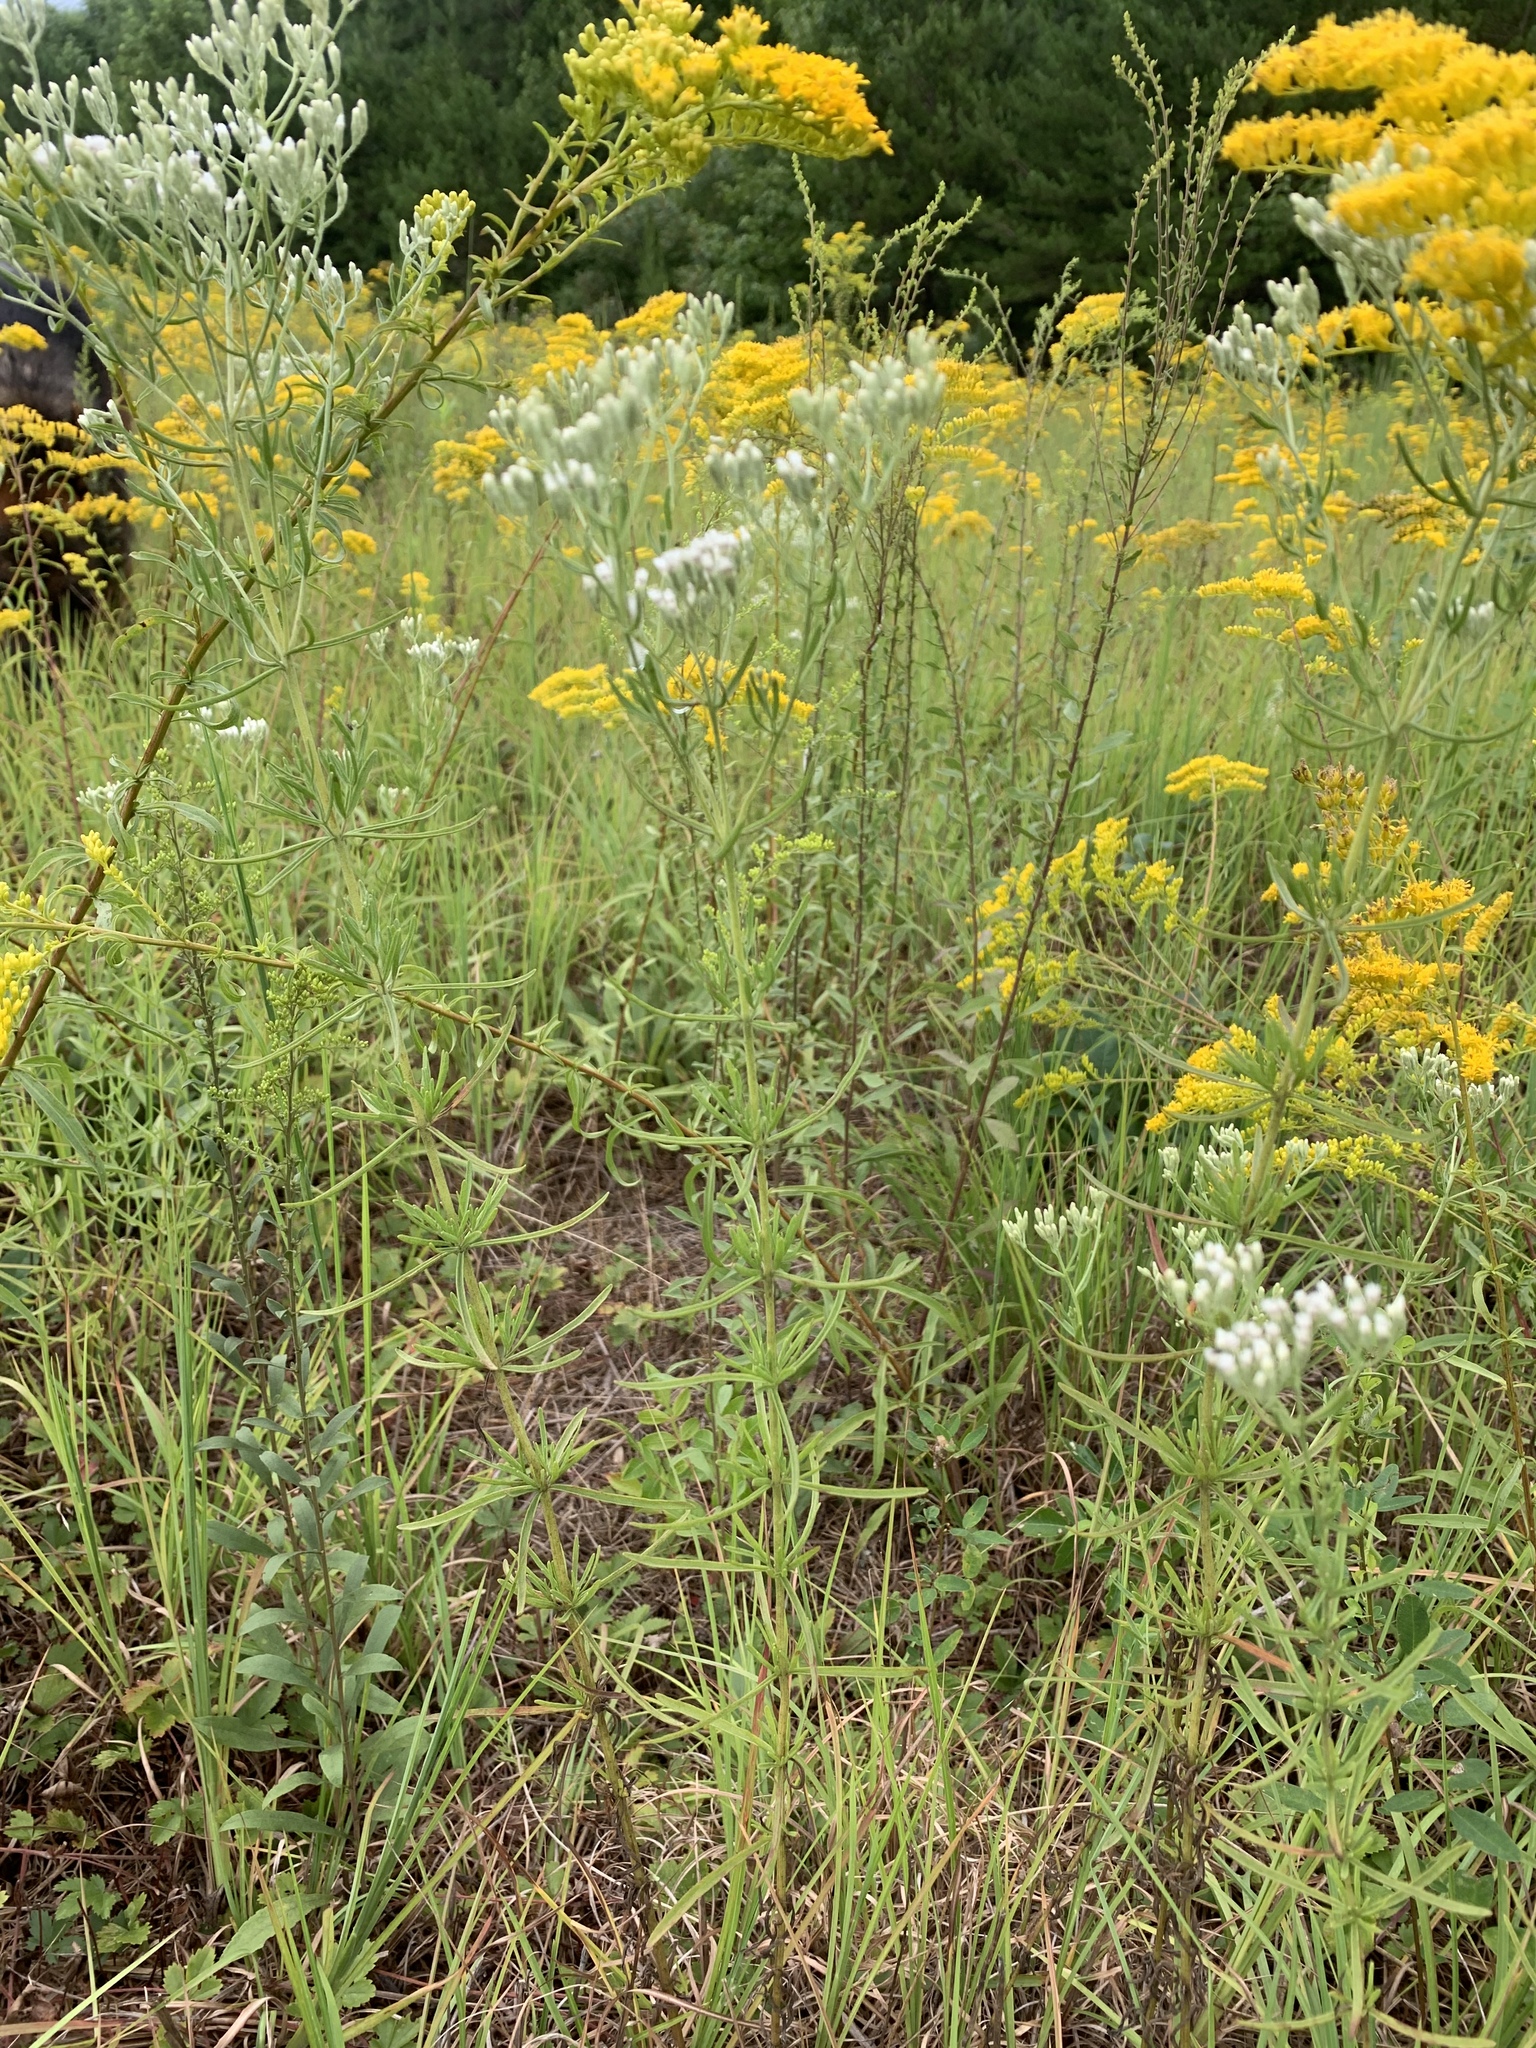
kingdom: Plantae
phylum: Tracheophyta
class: Magnoliopsida
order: Asterales
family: Asteraceae
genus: Eupatorium
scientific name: Eupatorium hyssopifolium
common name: Hyssop-leaf thoroughwort
